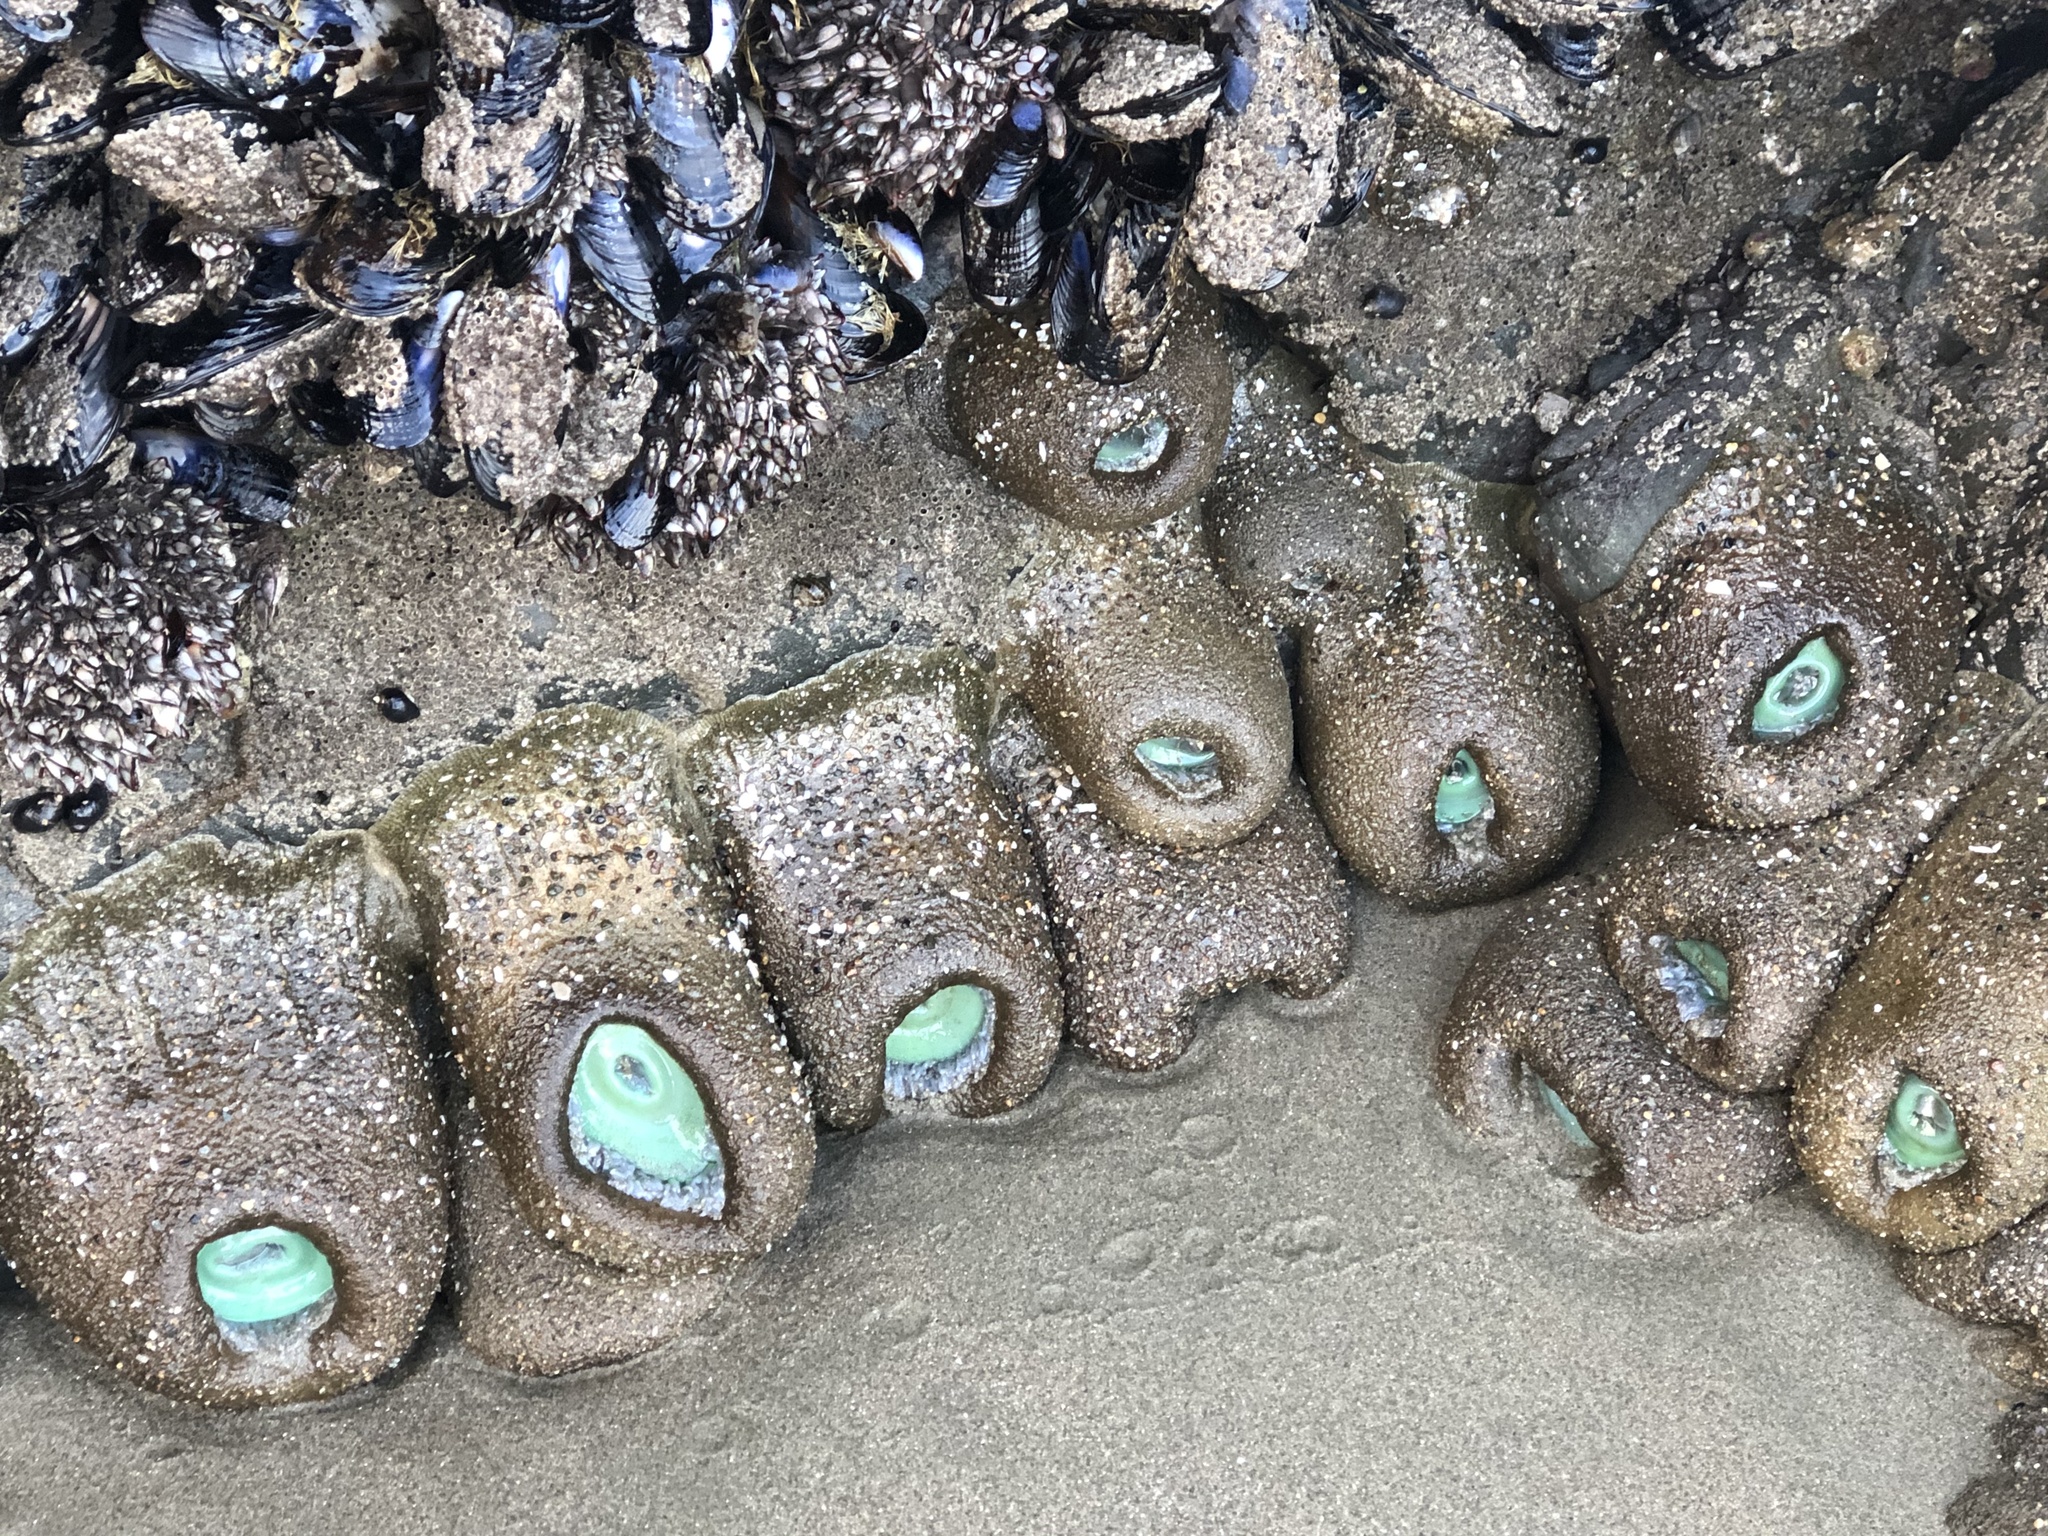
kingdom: Animalia
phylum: Cnidaria
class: Anthozoa
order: Actiniaria
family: Actiniidae
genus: Anthopleura
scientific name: Anthopleura xanthogrammica
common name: Giant green anemone
